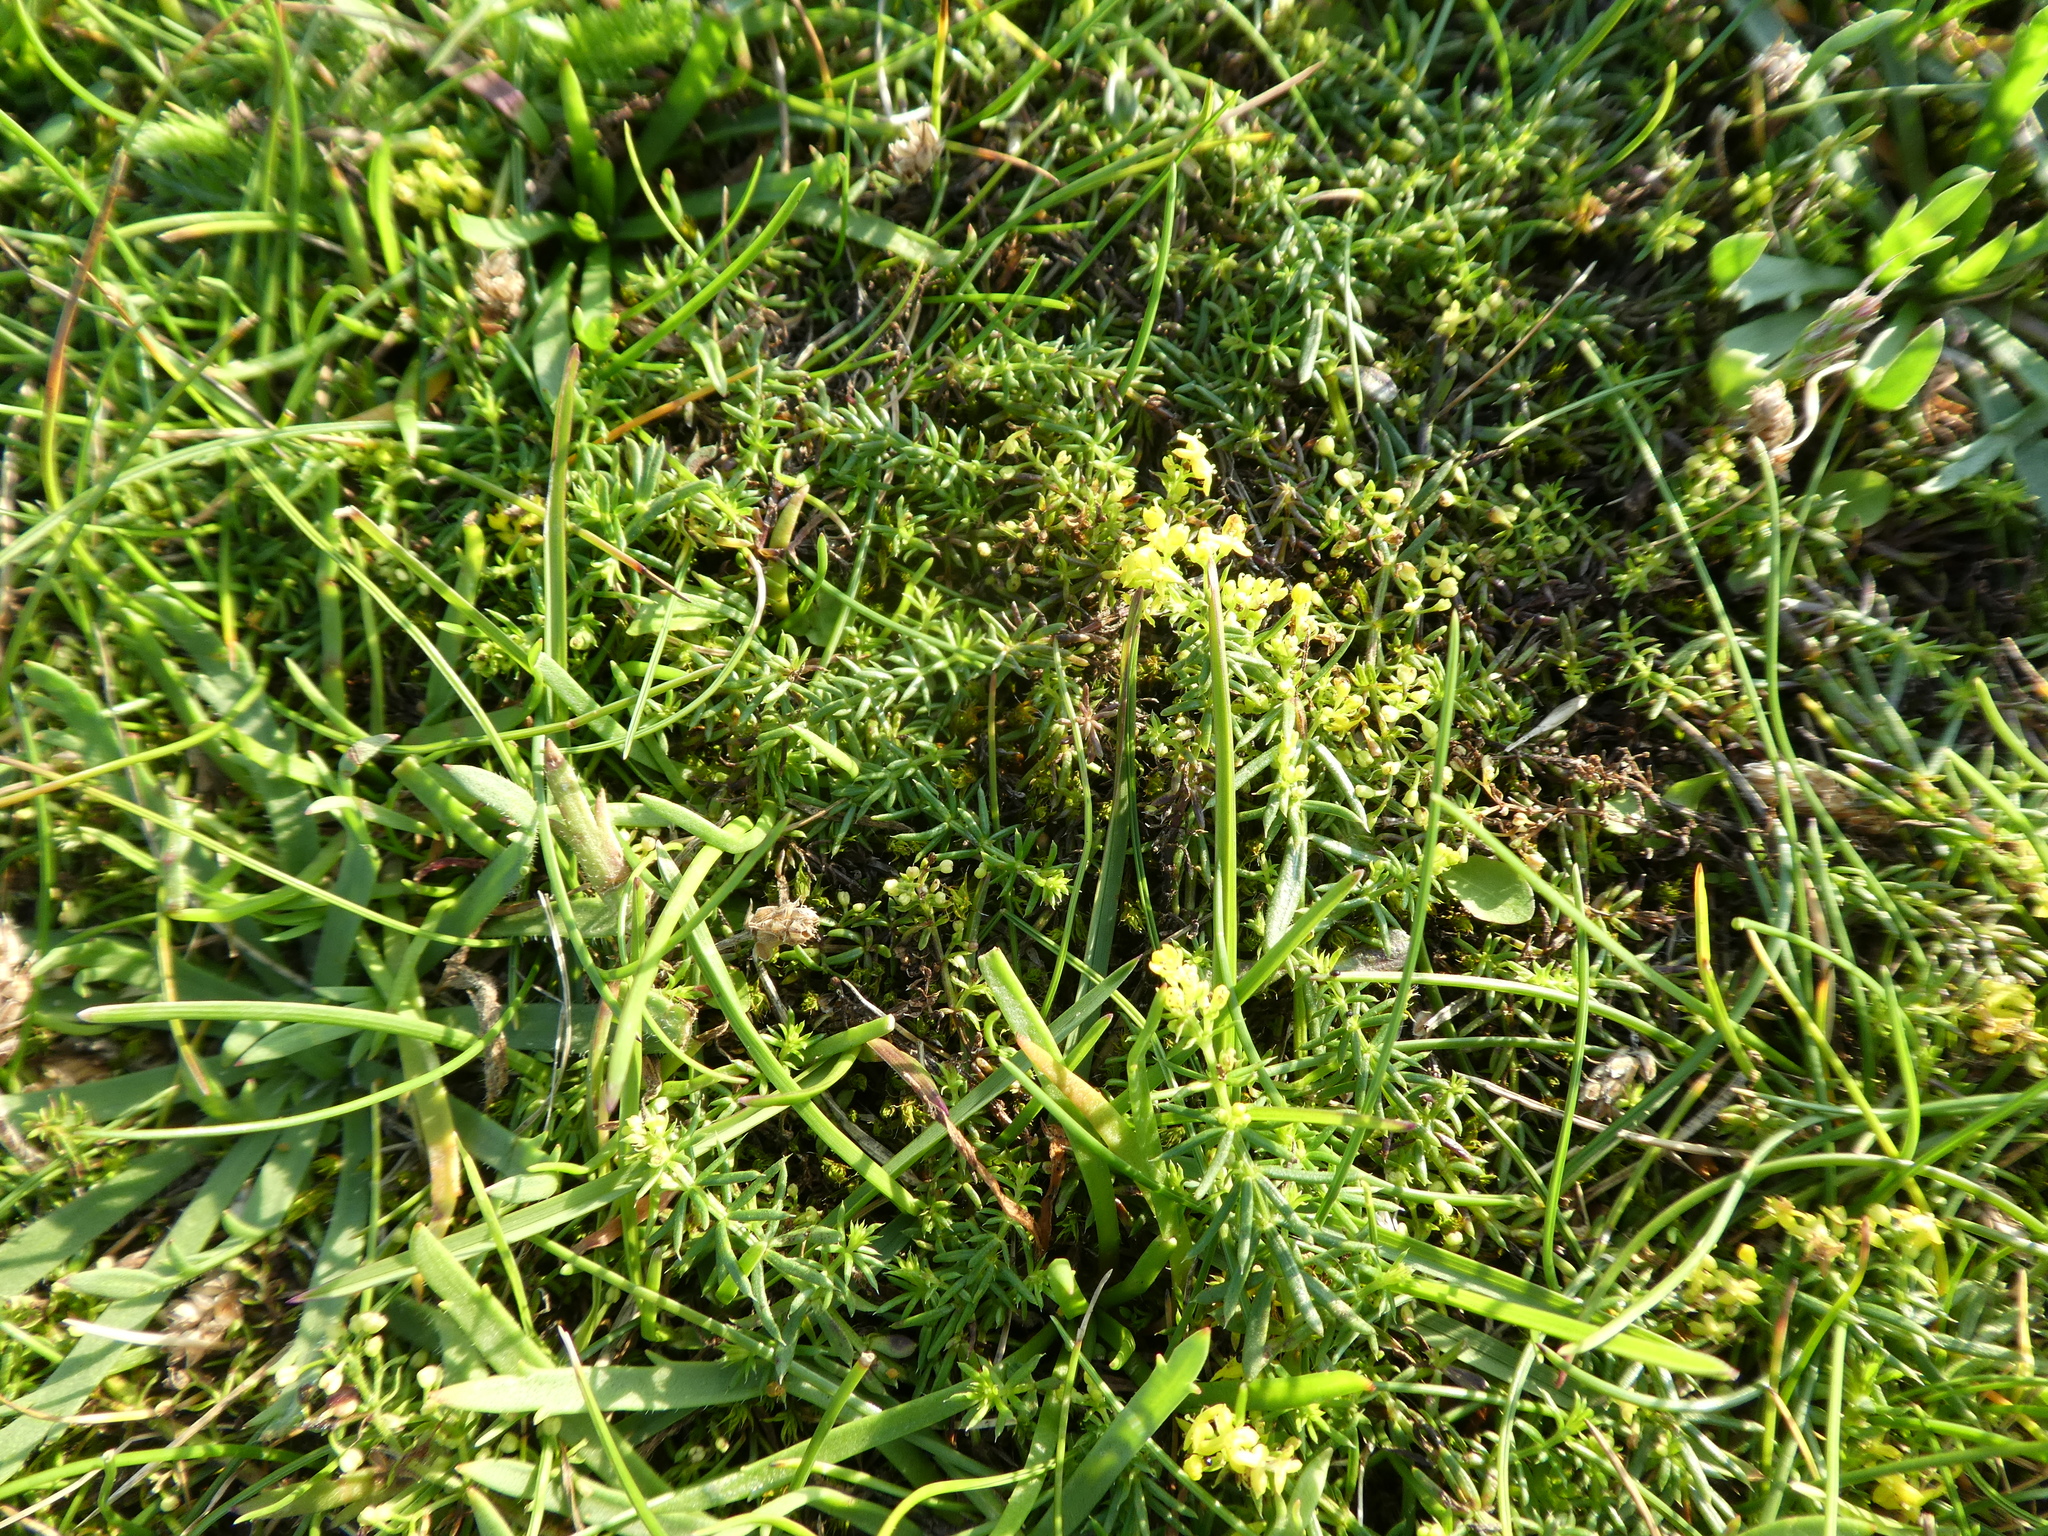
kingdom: Plantae
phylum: Tracheophyta
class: Magnoliopsida
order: Gentianales
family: Rubiaceae
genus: Galium
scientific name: Galium verum
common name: Lady's bedstraw
